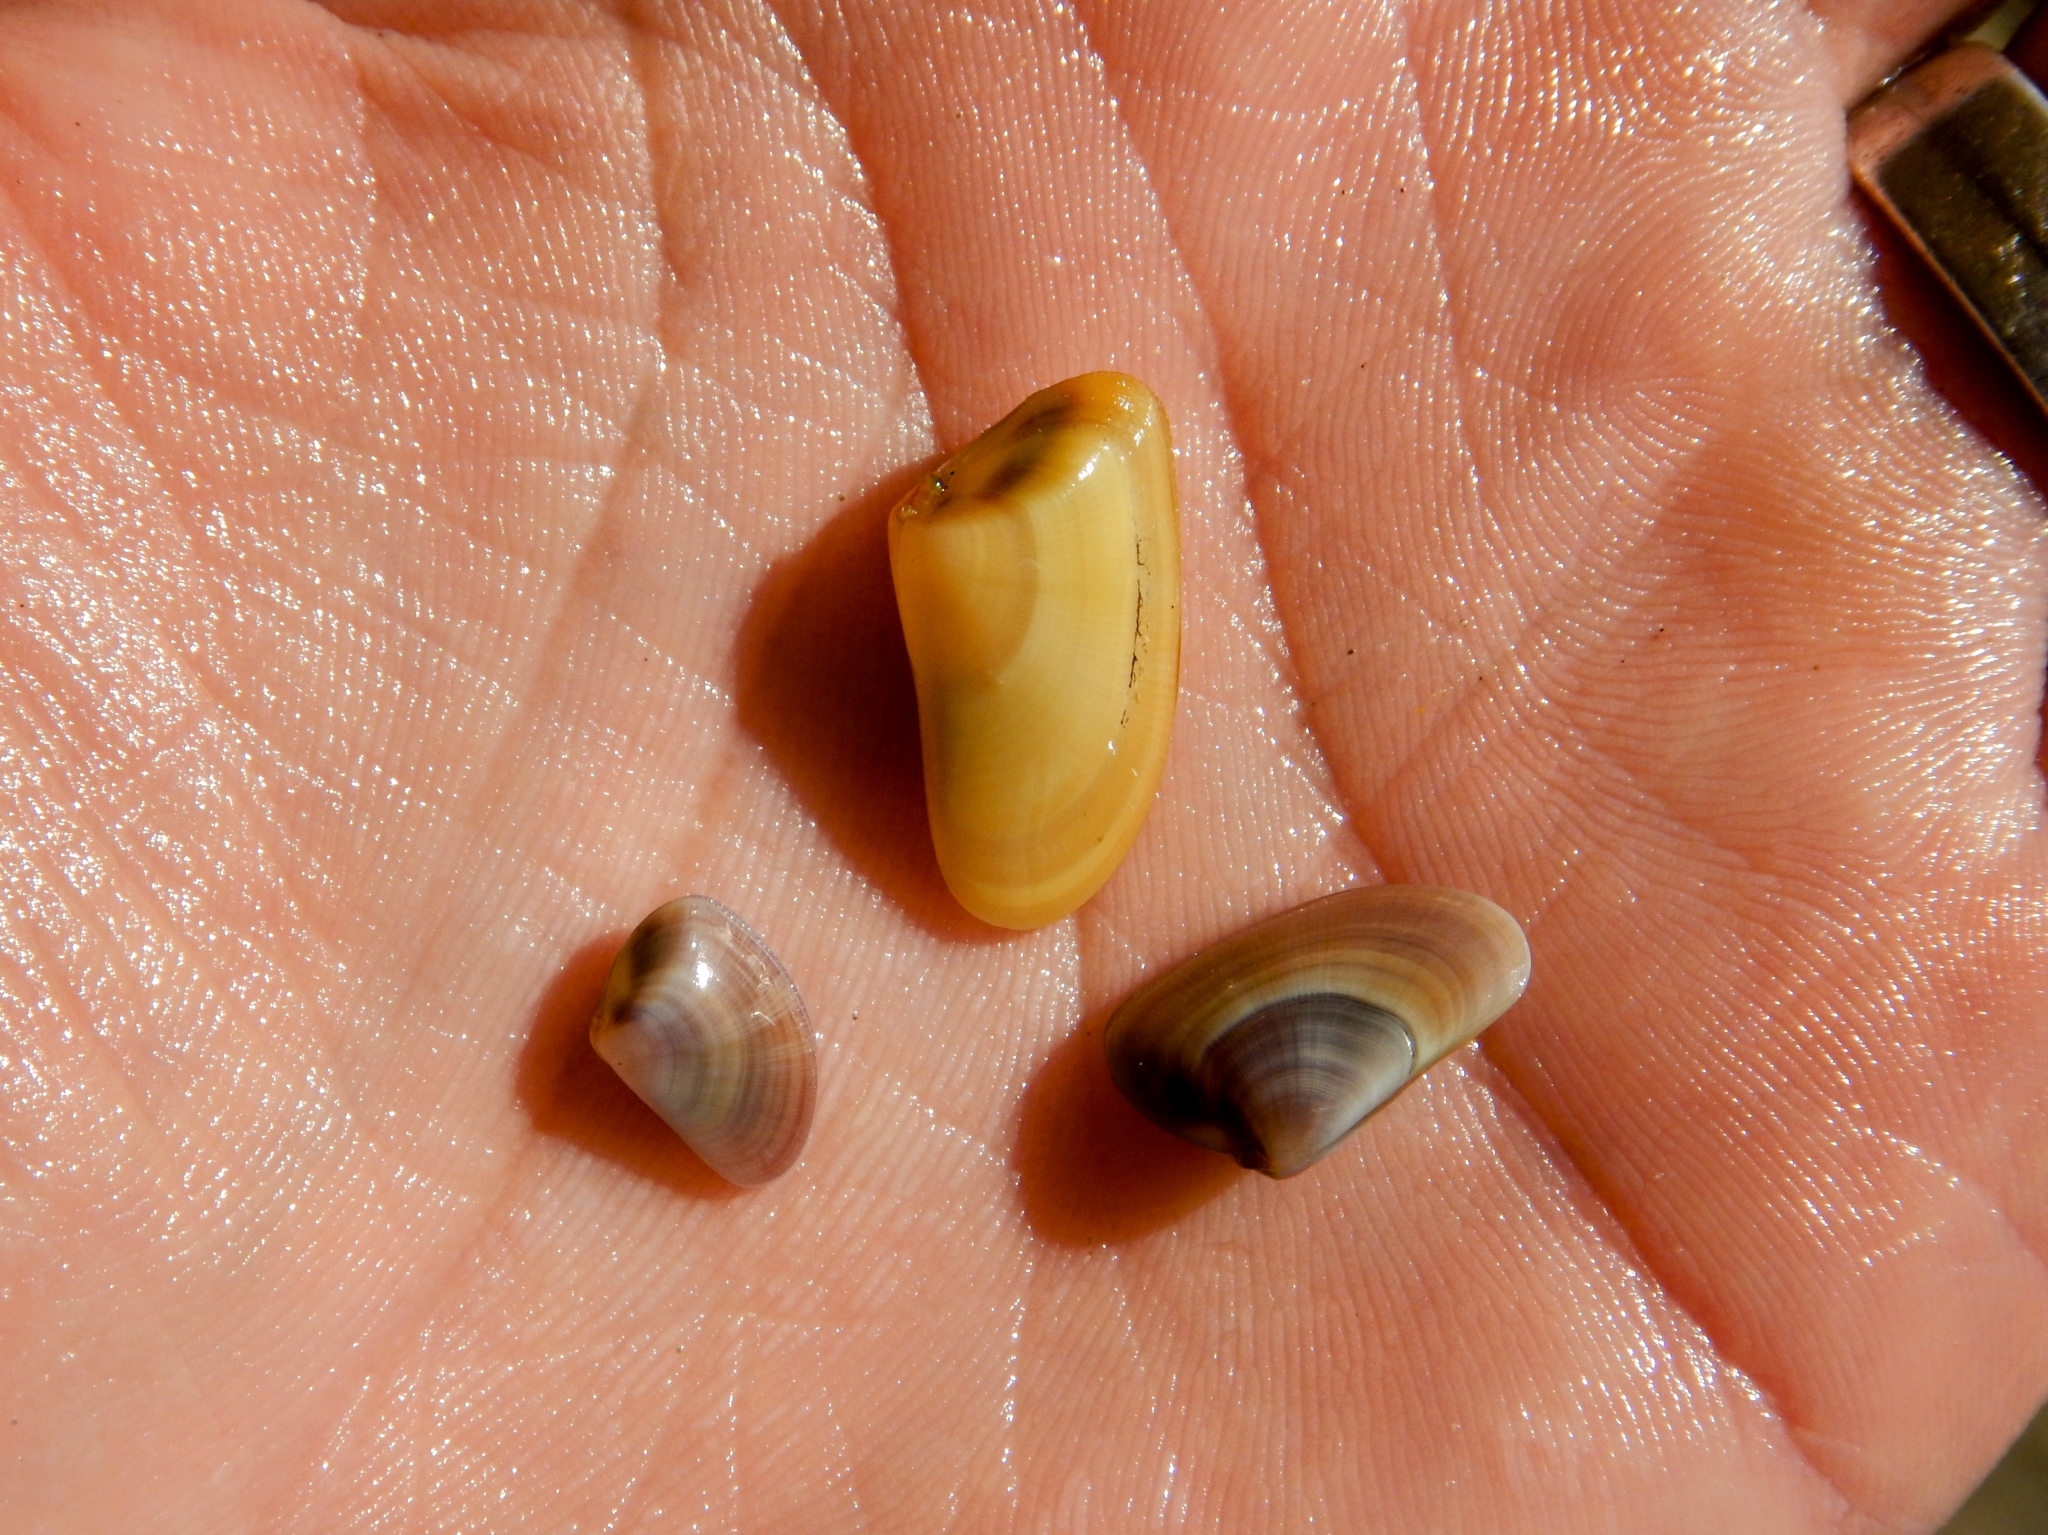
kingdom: Animalia
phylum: Mollusca
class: Bivalvia
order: Cardiida
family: Donacidae
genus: Donax
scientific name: Donax trunculus
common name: Truncate donax
